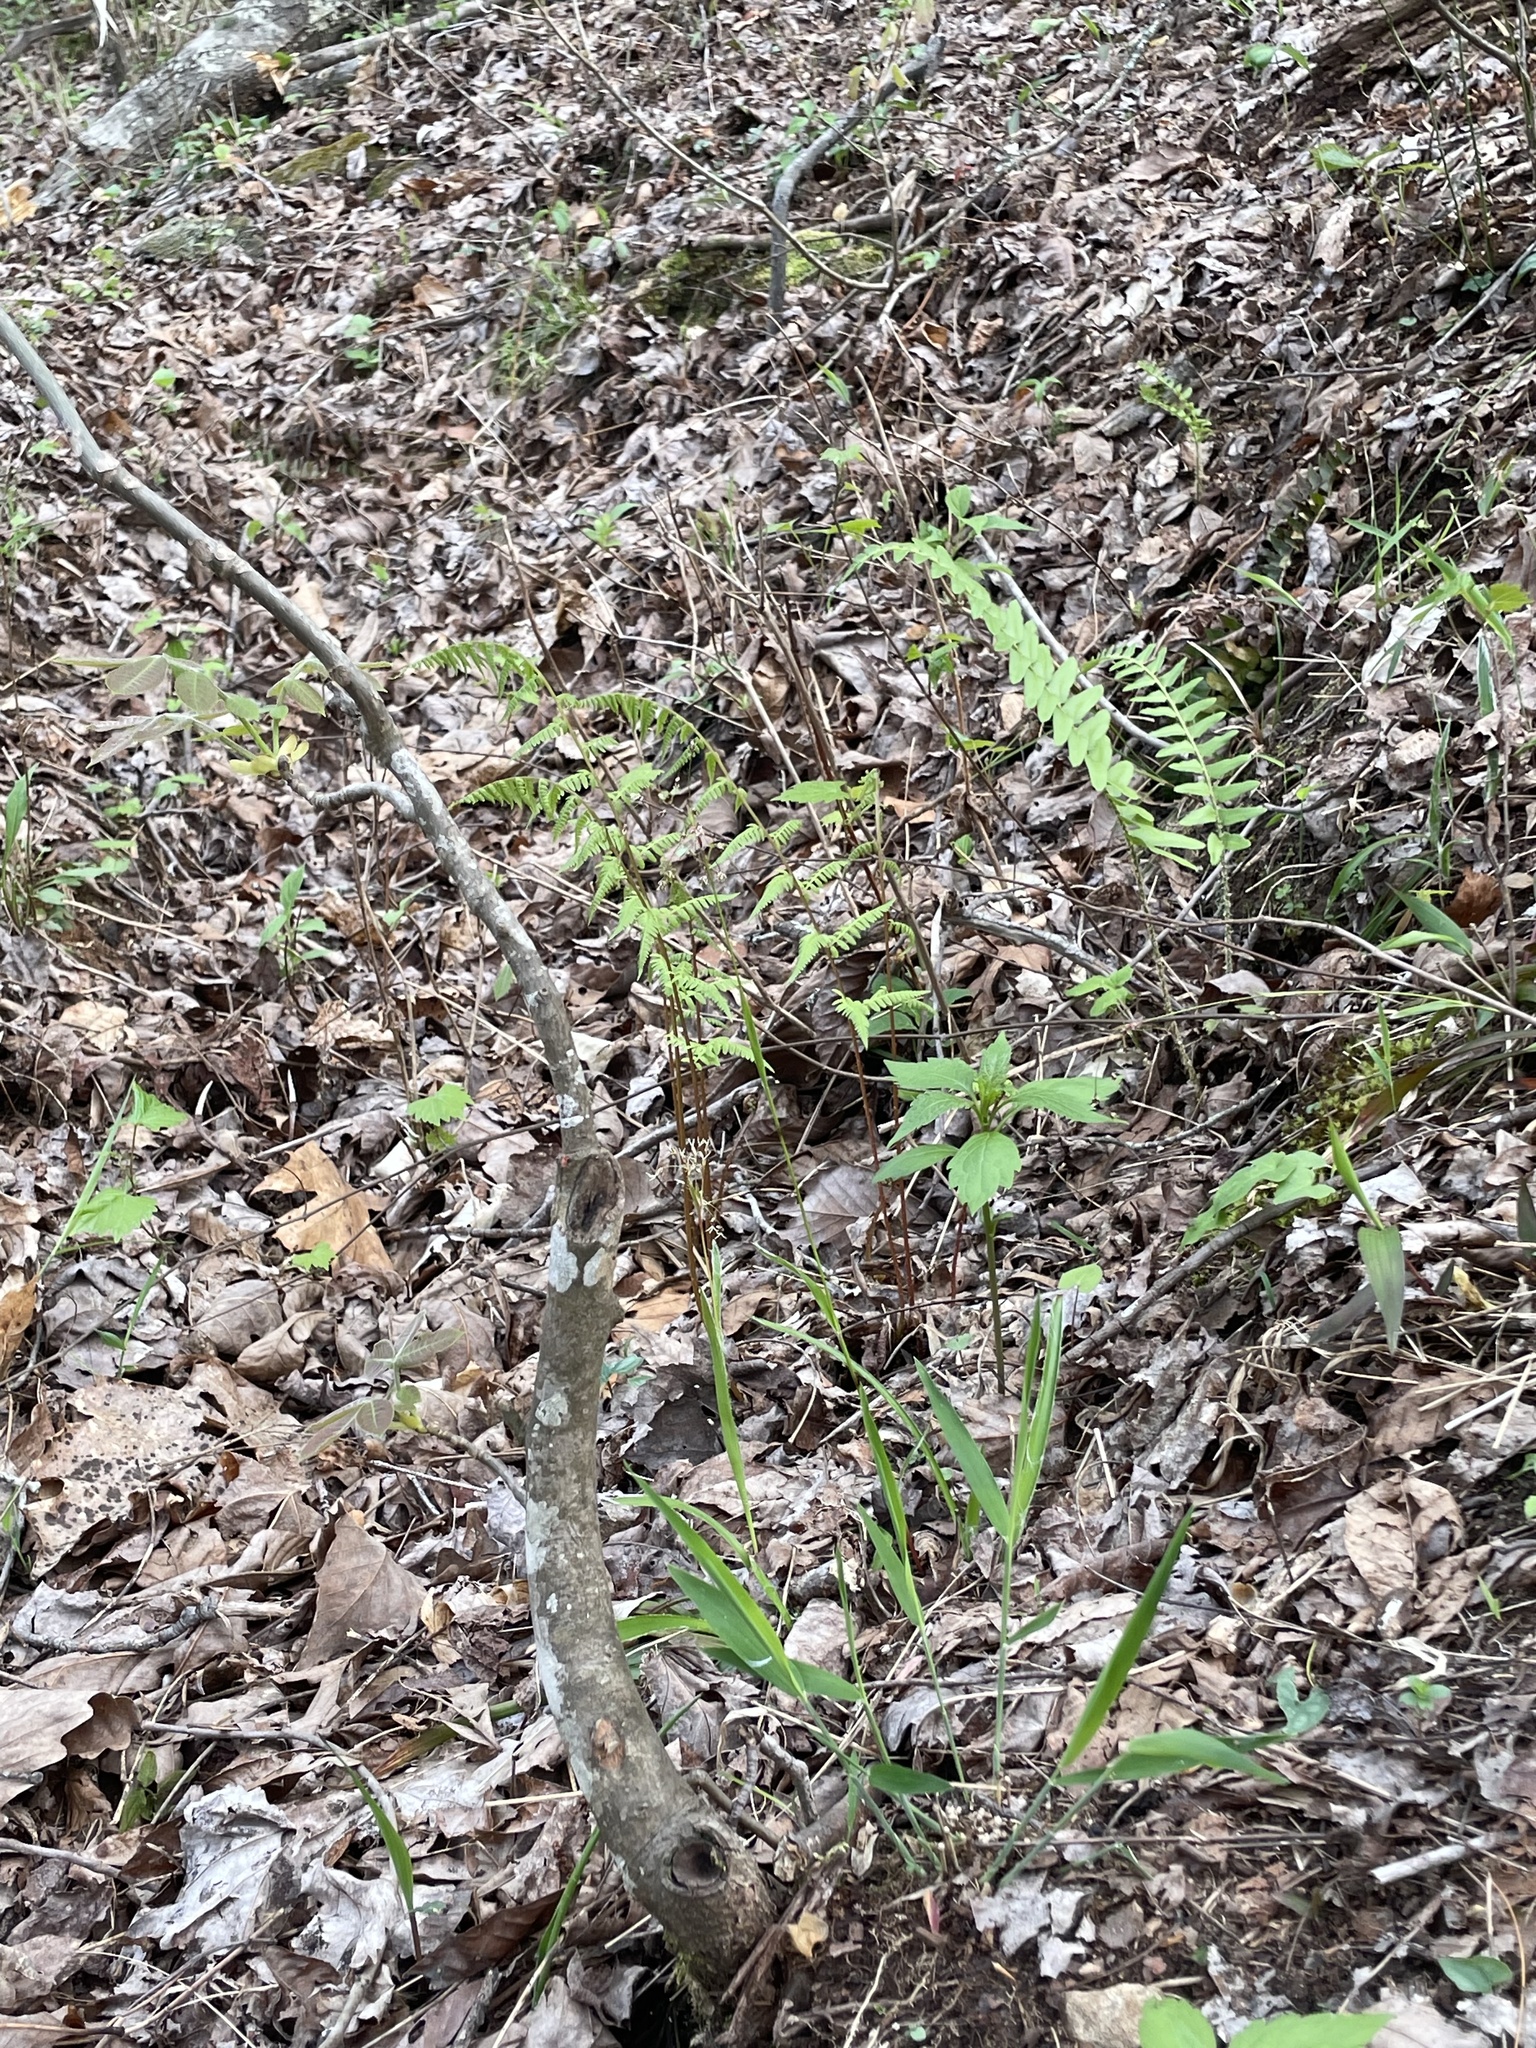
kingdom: Plantae
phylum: Tracheophyta
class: Polypodiopsida
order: Polypodiales
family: Athyriaceae
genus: Athyrium
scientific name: Athyrium asplenioides
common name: Southern lady fern
